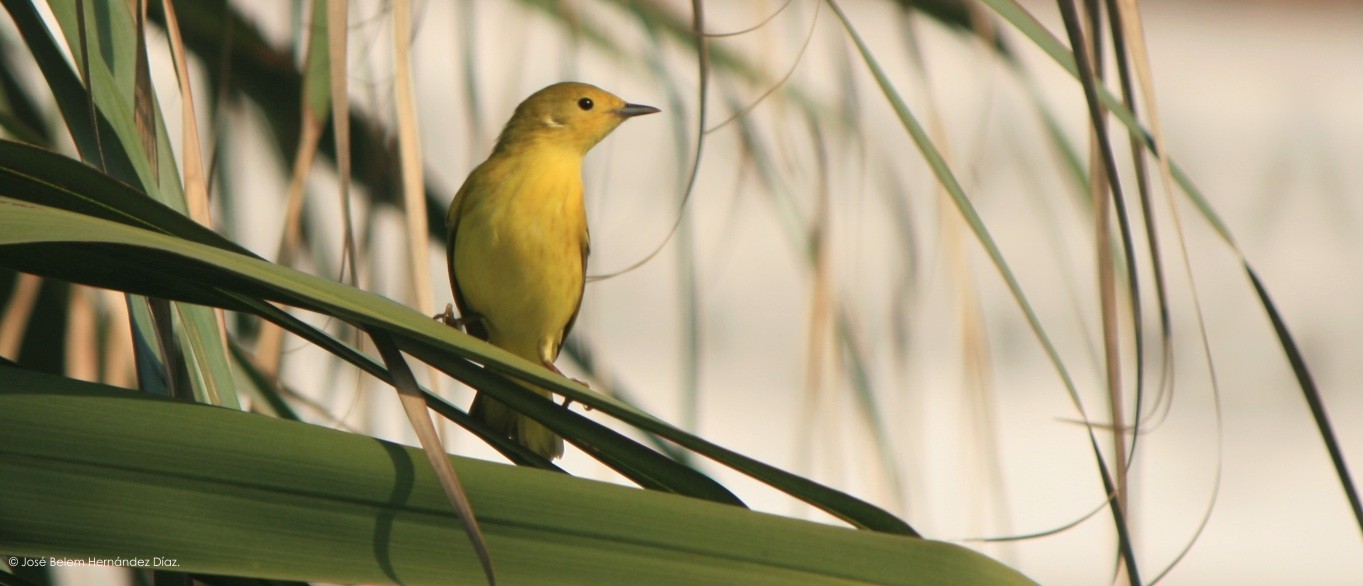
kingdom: Animalia
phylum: Chordata
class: Aves
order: Passeriformes
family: Parulidae
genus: Setophaga
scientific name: Setophaga petechia
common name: Yellow warbler
